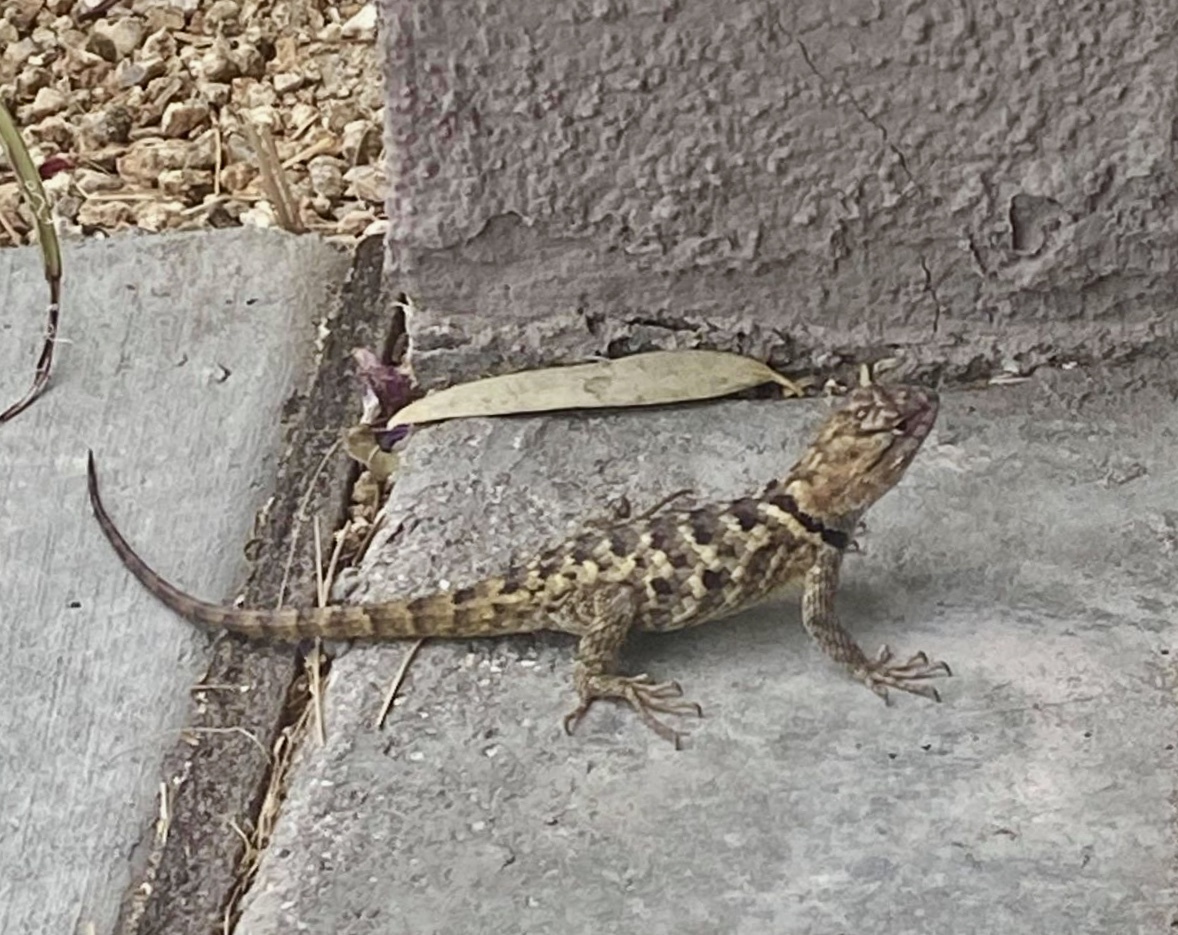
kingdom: Animalia
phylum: Chordata
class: Squamata
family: Phrynosomatidae
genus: Sceloporus
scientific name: Sceloporus magister
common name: Desert spiny lizard
